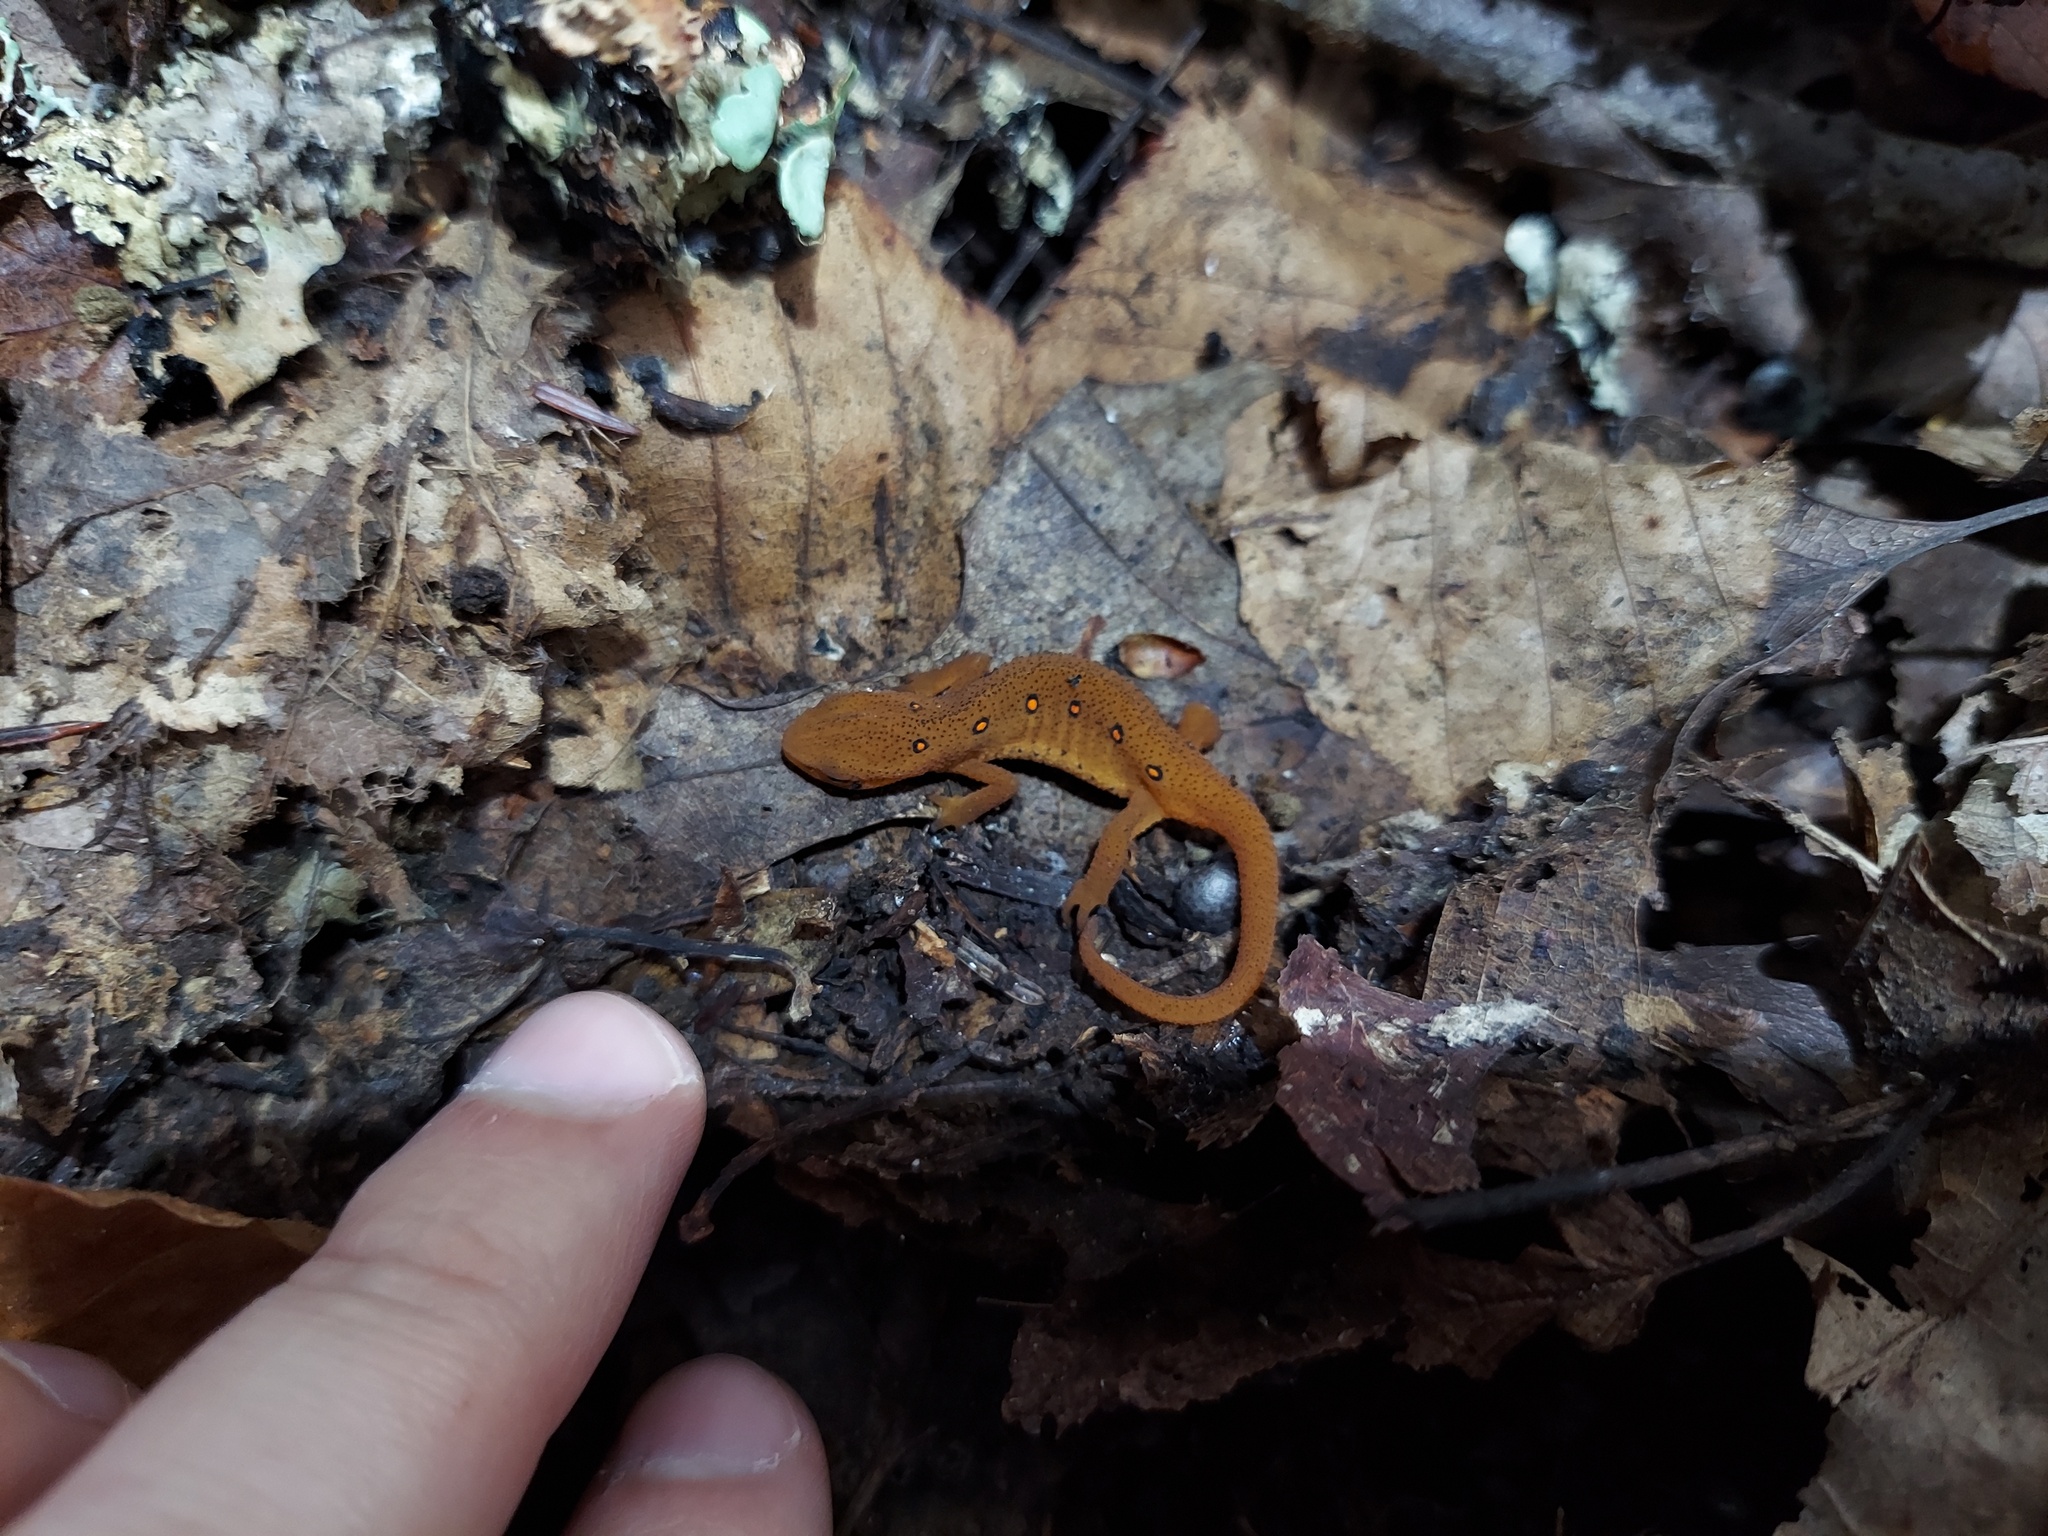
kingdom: Animalia
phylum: Chordata
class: Amphibia
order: Caudata
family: Salamandridae
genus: Notophthalmus
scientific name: Notophthalmus viridescens
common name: Eastern newt
